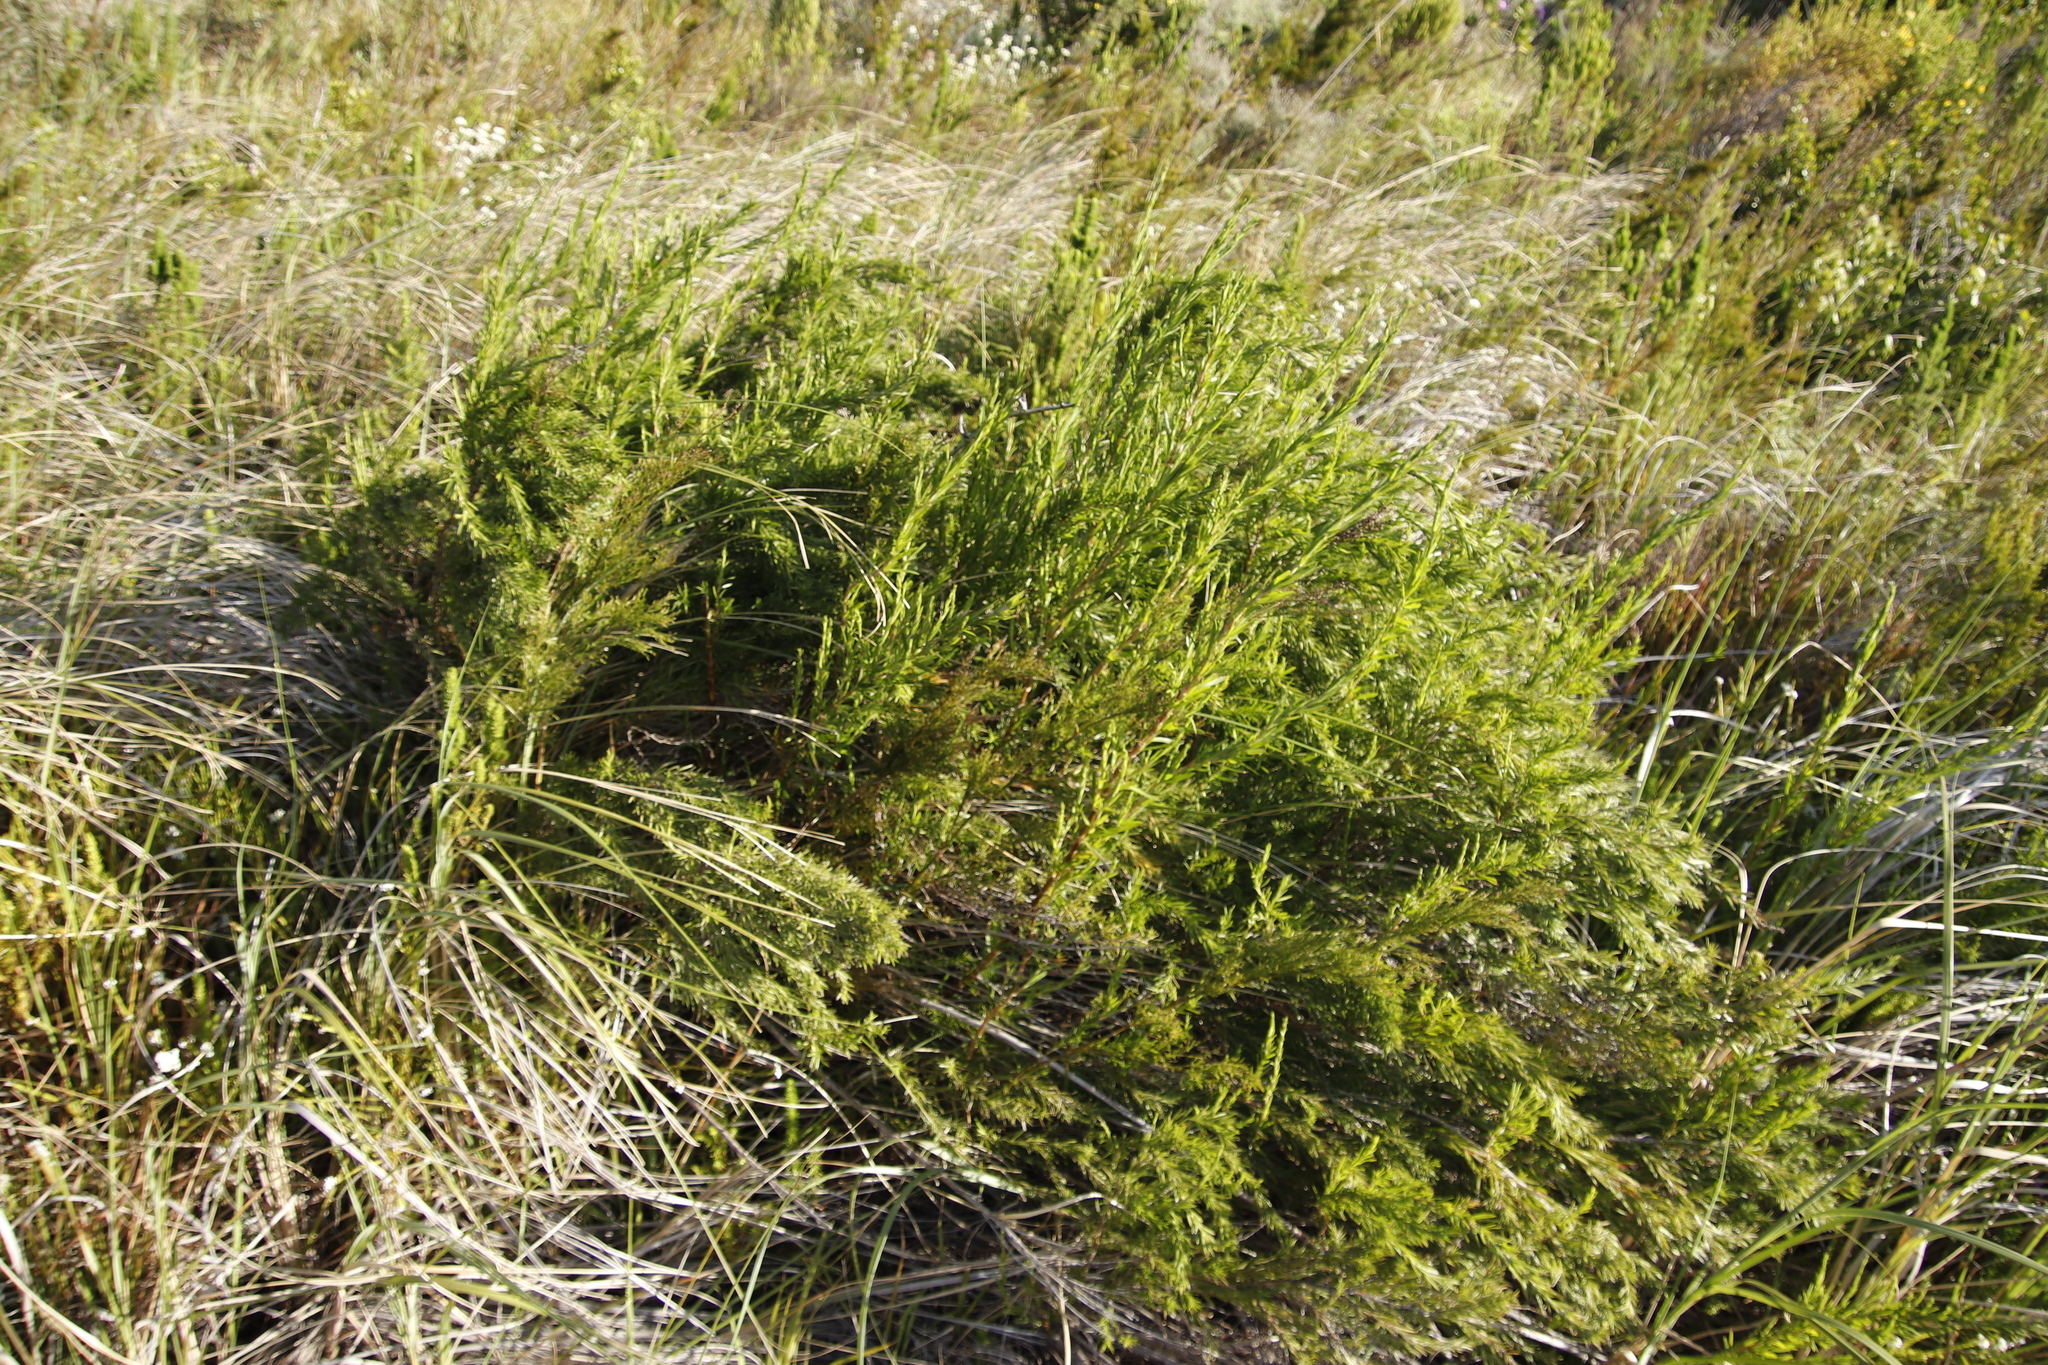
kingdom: Plantae
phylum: Tracheophyta
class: Magnoliopsida
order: Rosales
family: Rosaceae
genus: Cliffortia
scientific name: Cliffortia strobilifera
